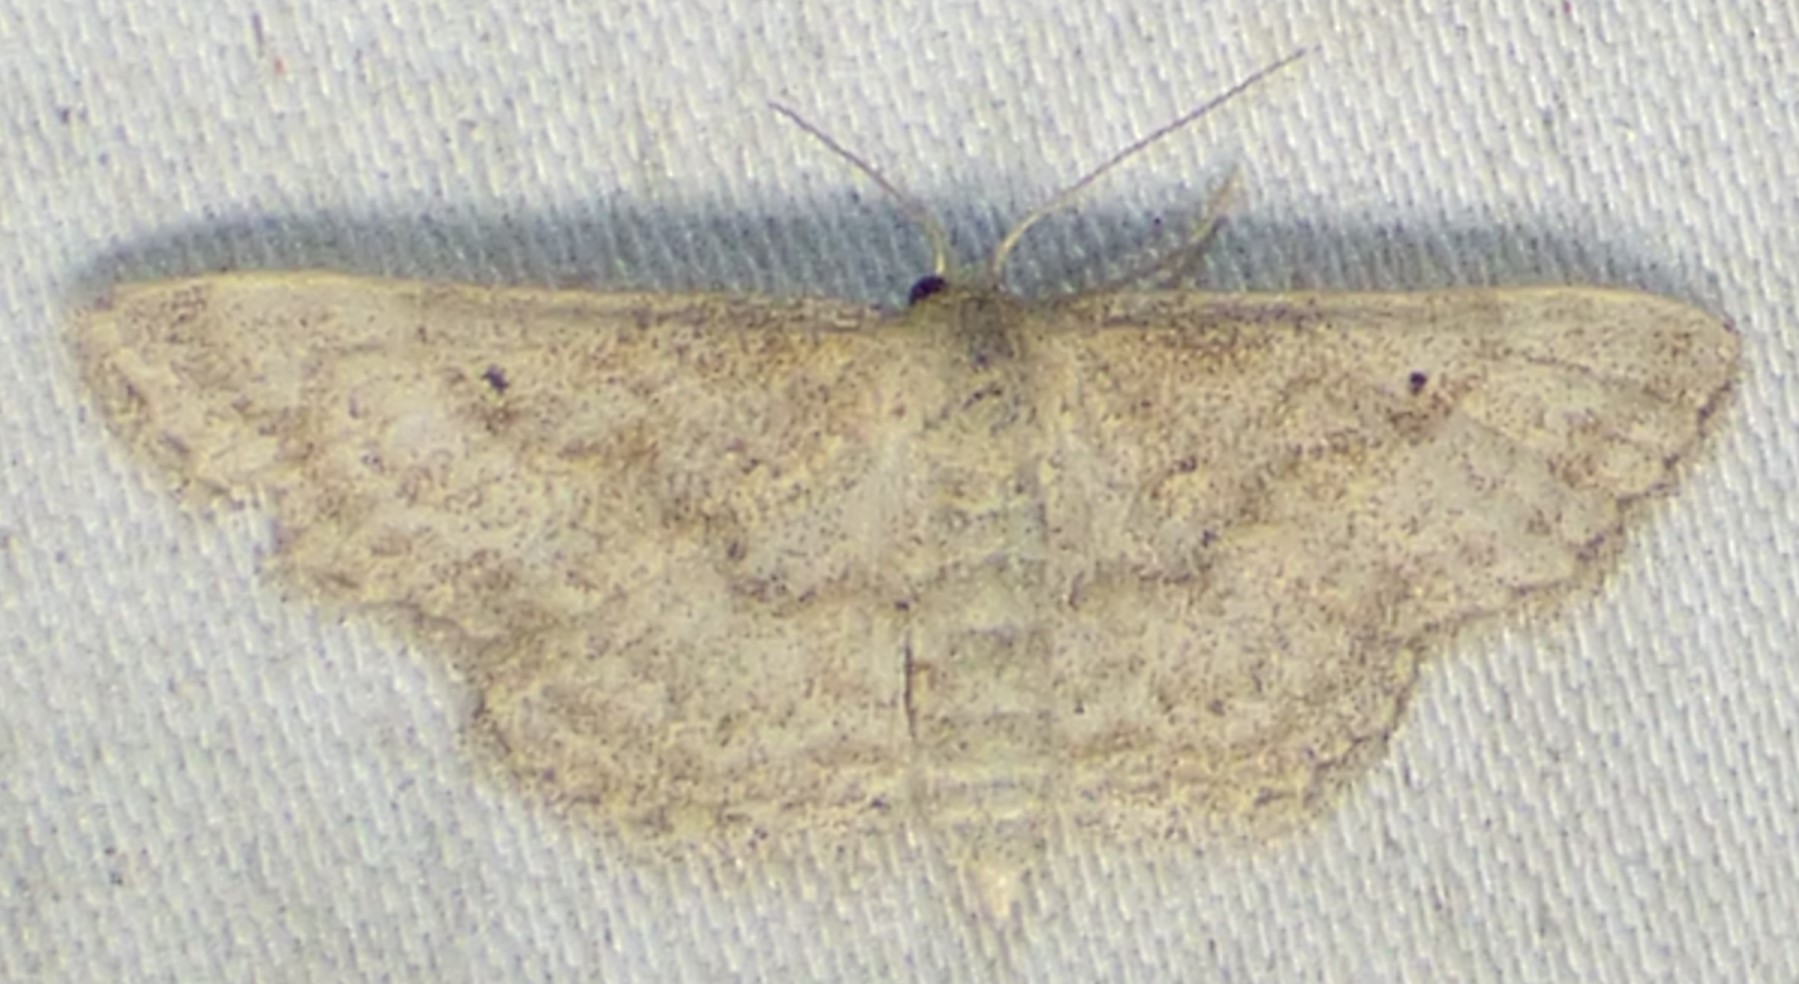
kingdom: Animalia
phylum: Arthropoda
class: Insecta
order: Lepidoptera
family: Geometridae
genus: Lobocleta
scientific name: Lobocleta ossularia
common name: Drab brown wave
